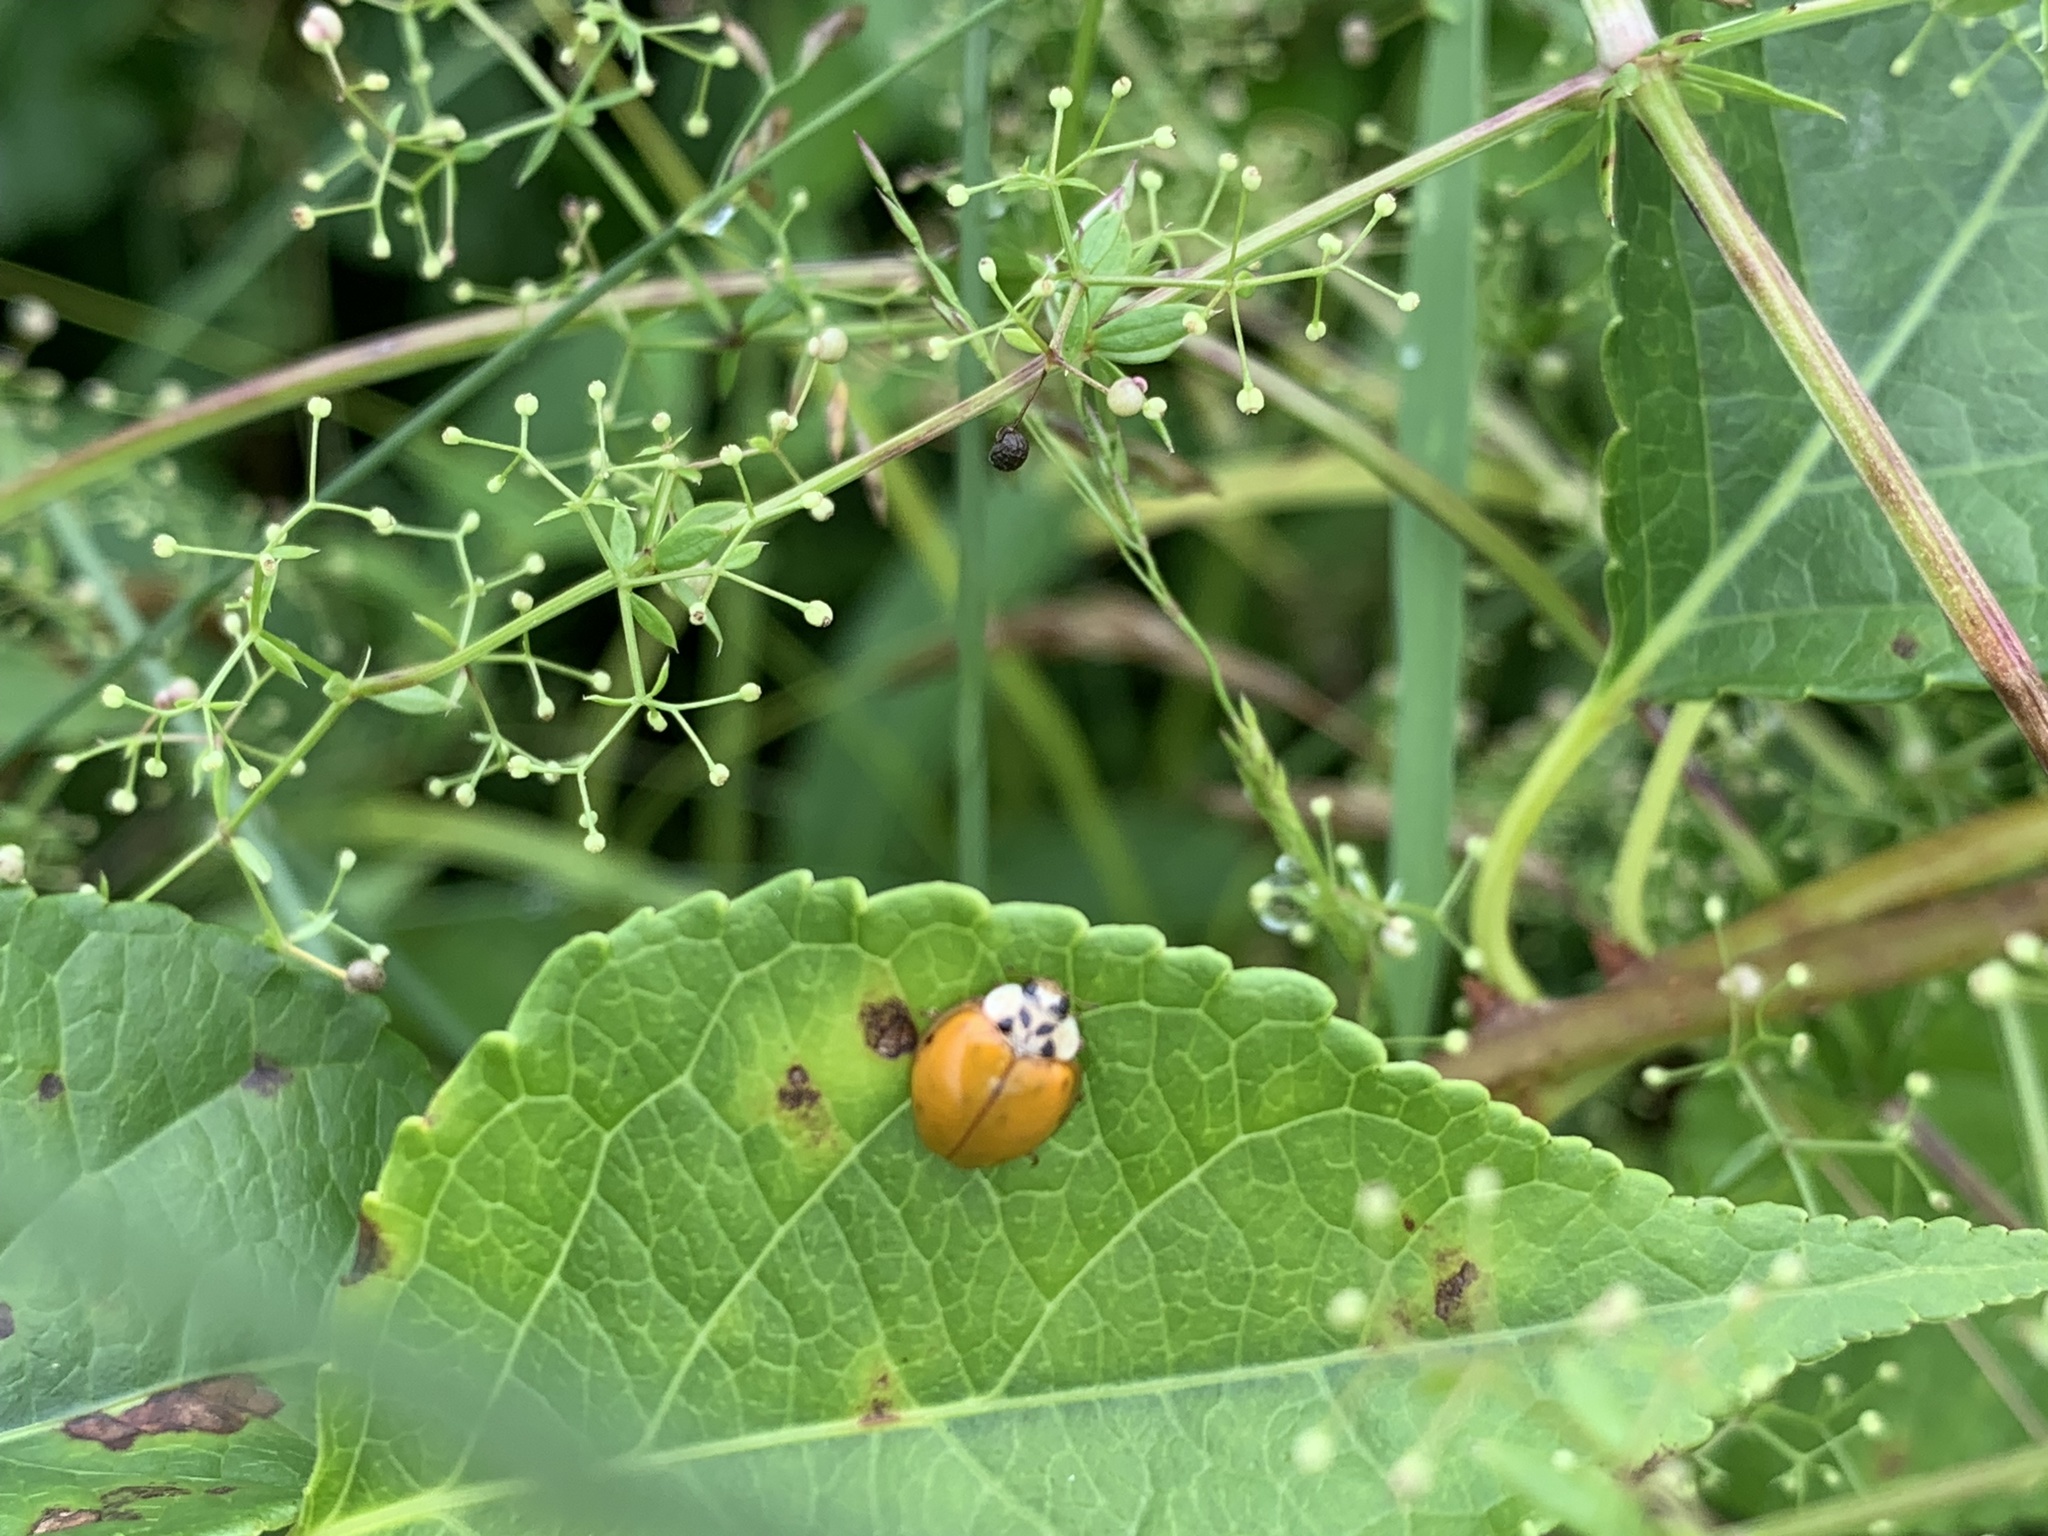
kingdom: Animalia
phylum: Arthropoda
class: Insecta
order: Coleoptera
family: Coccinellidae
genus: Harmonia
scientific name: Harmonia axyridis
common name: Harlequin ladybird
